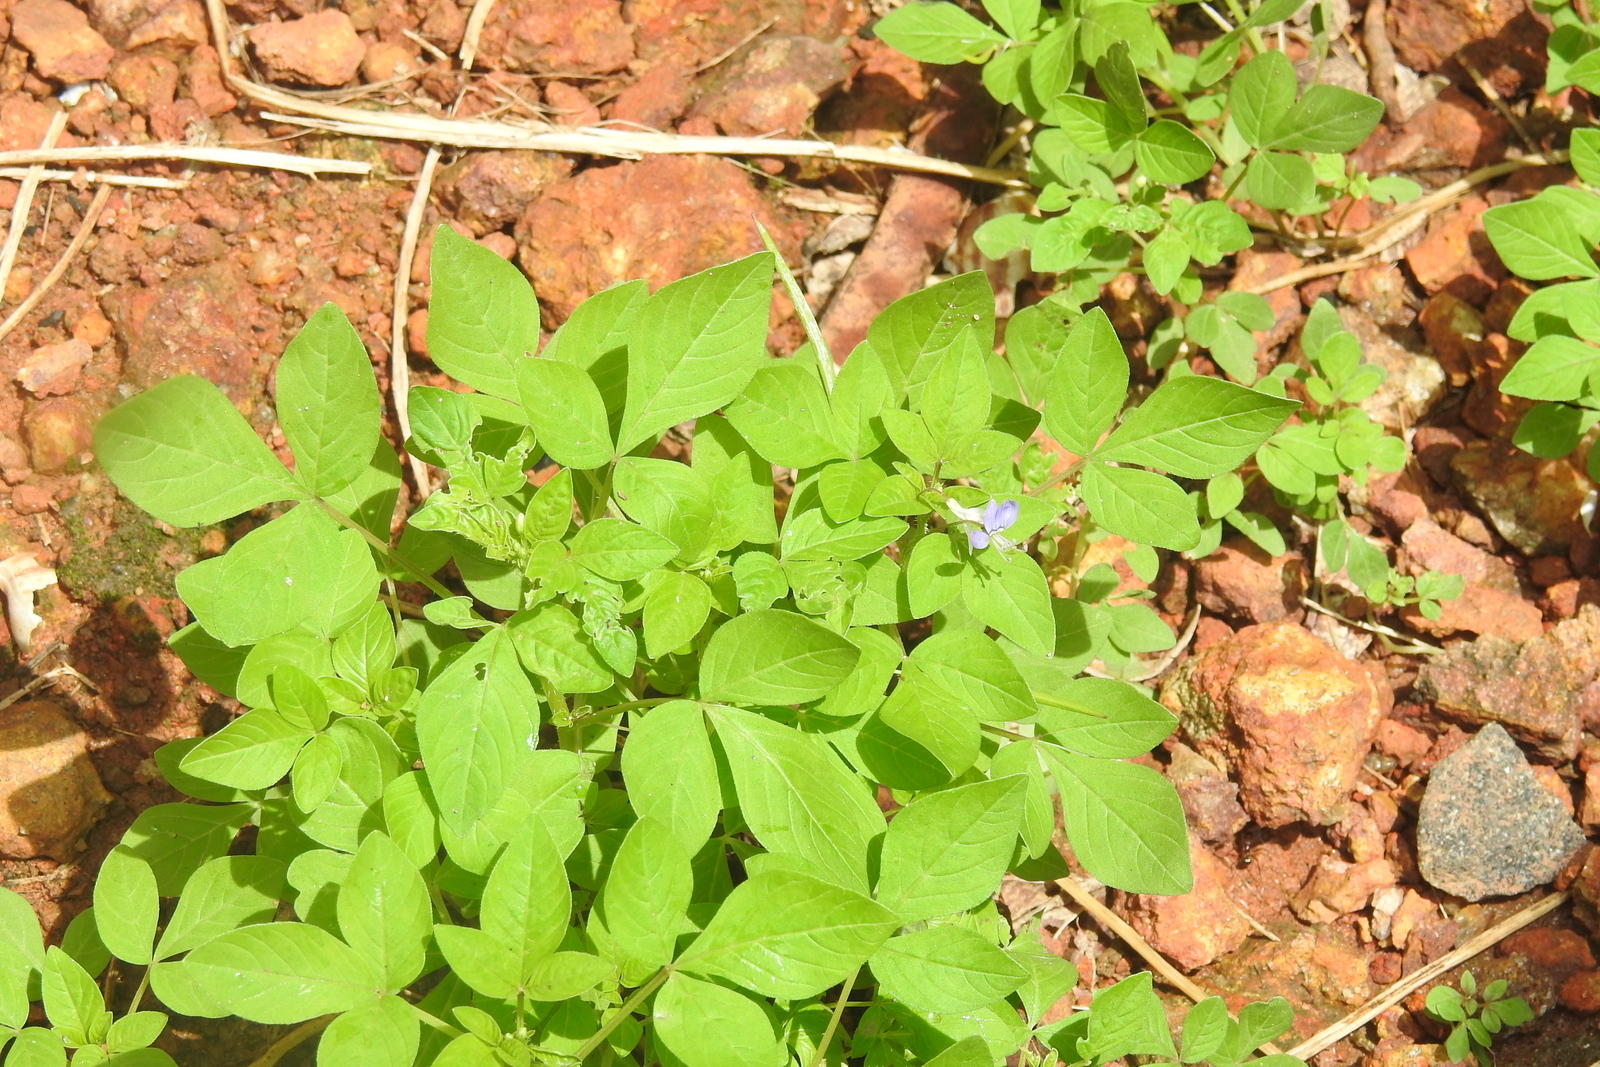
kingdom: Plantae
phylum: Tracheophyta
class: Magnoliopsida
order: Brassicales
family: Cleomaceae
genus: Sieruela
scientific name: Sieruela rutidosperma
